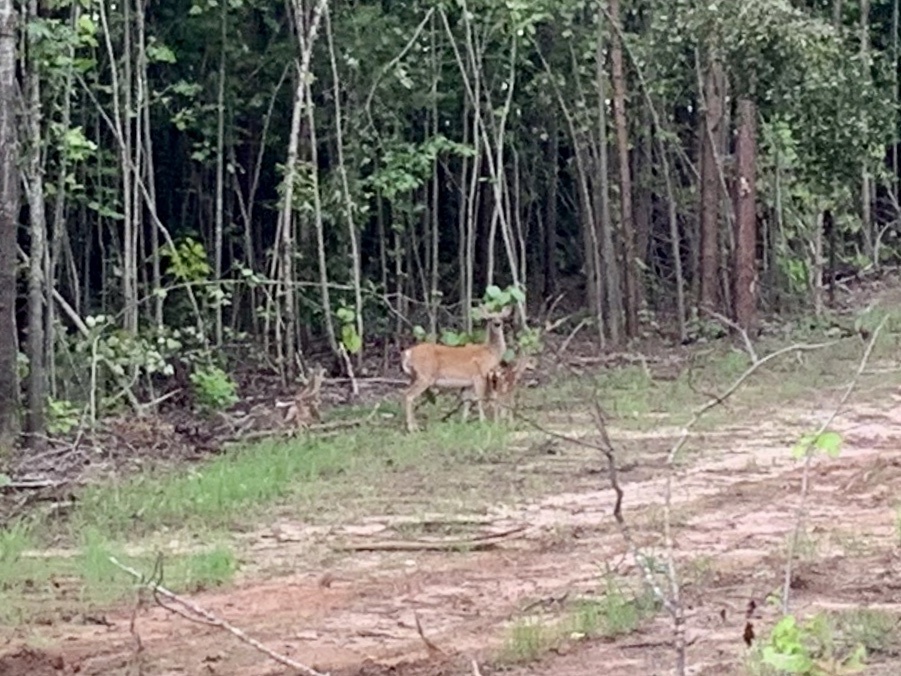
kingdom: Animalia
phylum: Chordata
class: Mammalia
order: Artiodactyla
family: Cervidae
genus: Odocoileus
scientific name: Odocoileus virginianus
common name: White-tailed deer
